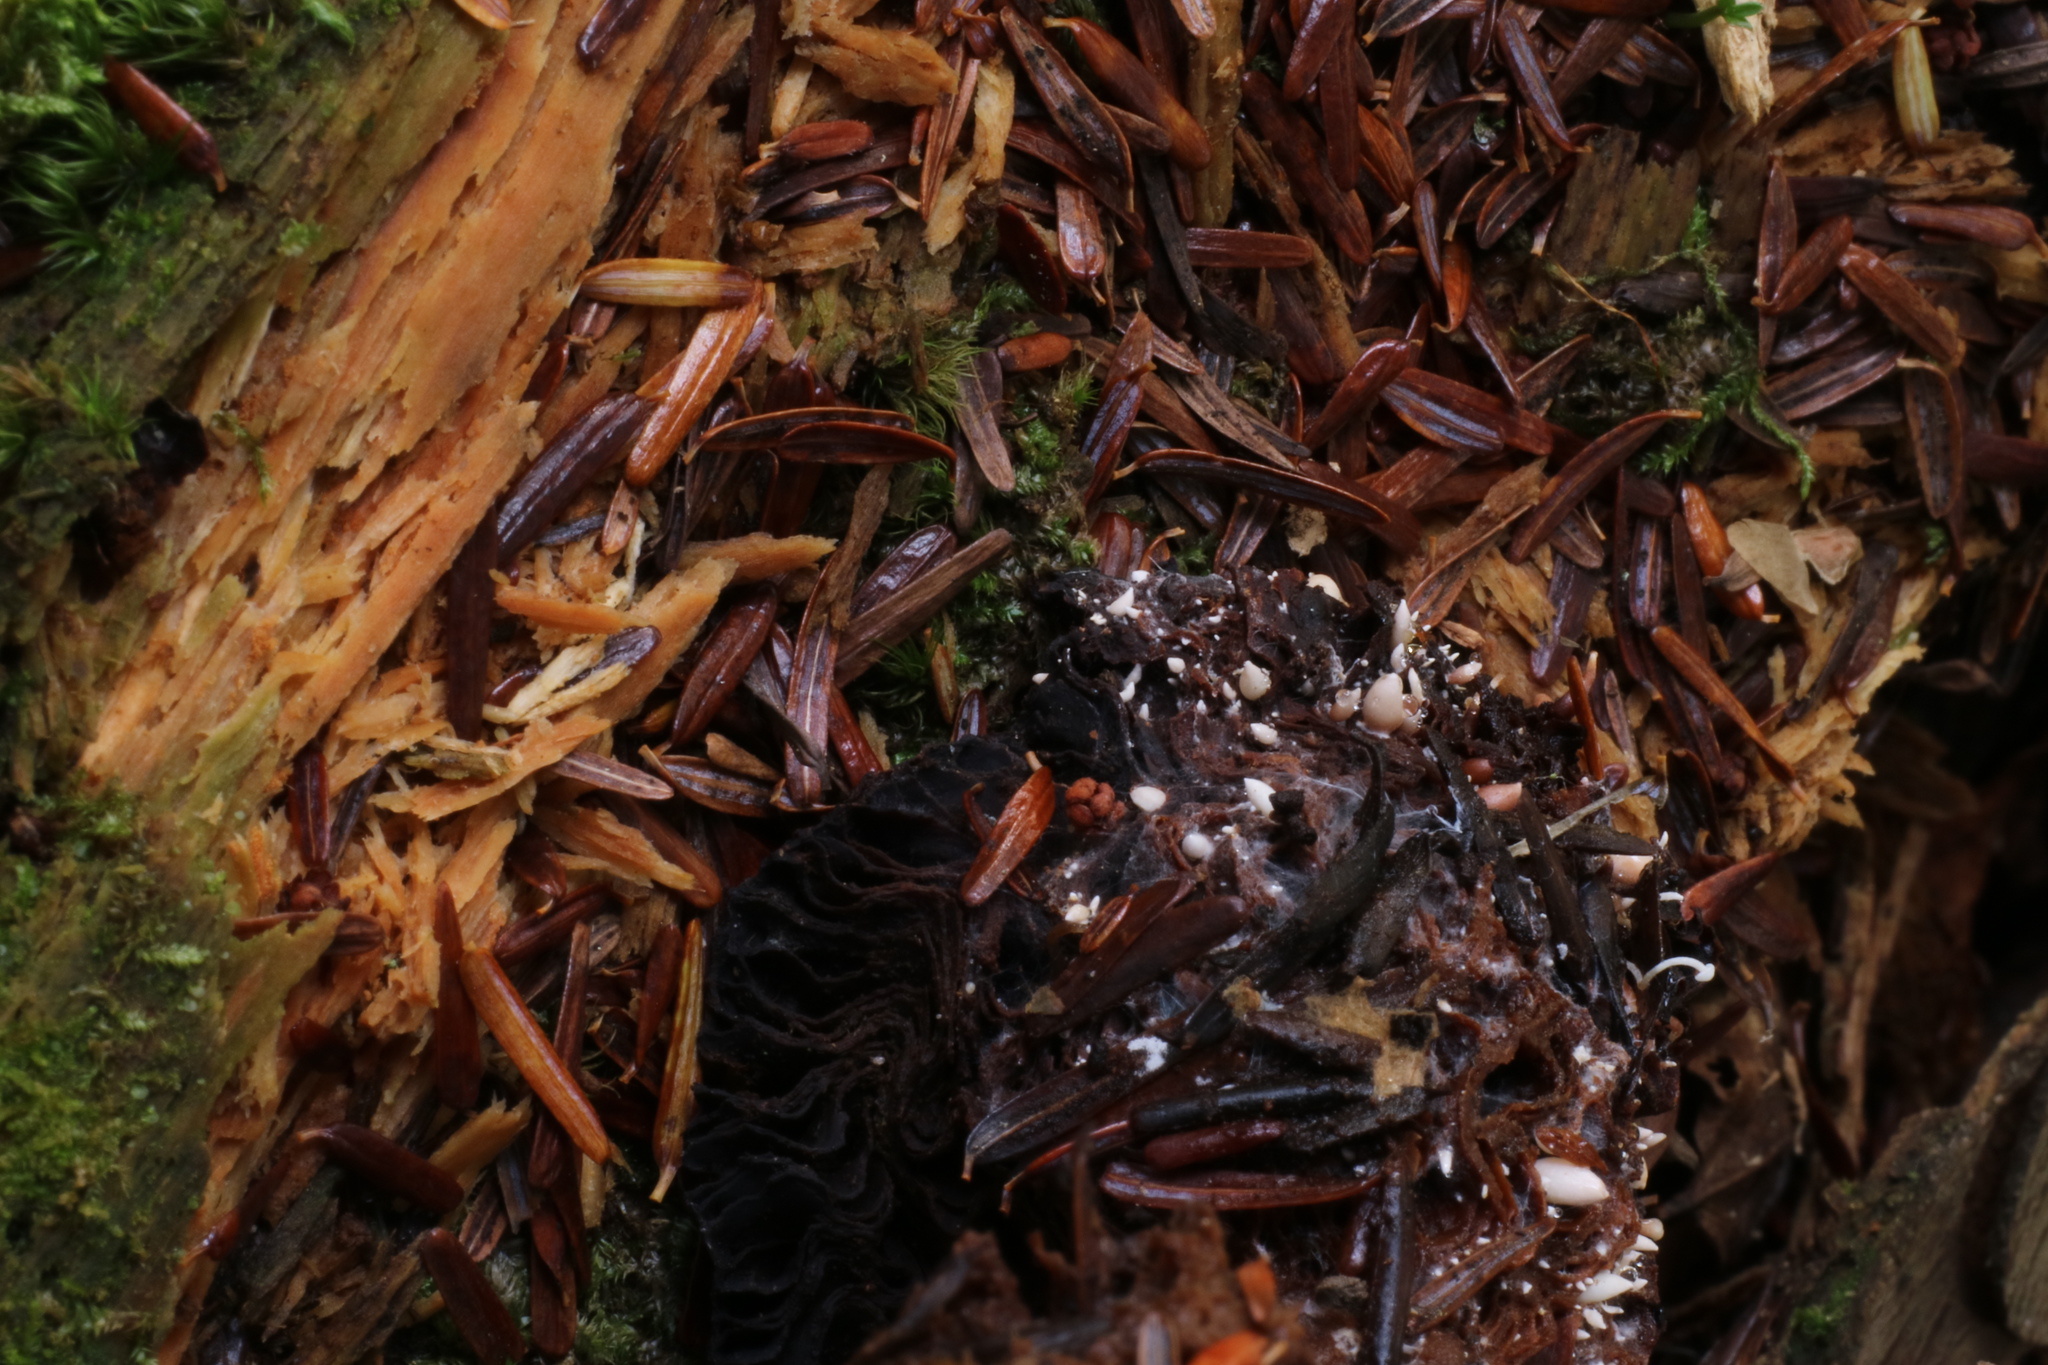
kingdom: Fungi
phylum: Basidiomycota
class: Agaricomycetes
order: Agaricales
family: Tricholomataceae
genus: Collybia
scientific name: Collybia tuberosa
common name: Lentil shanklet
